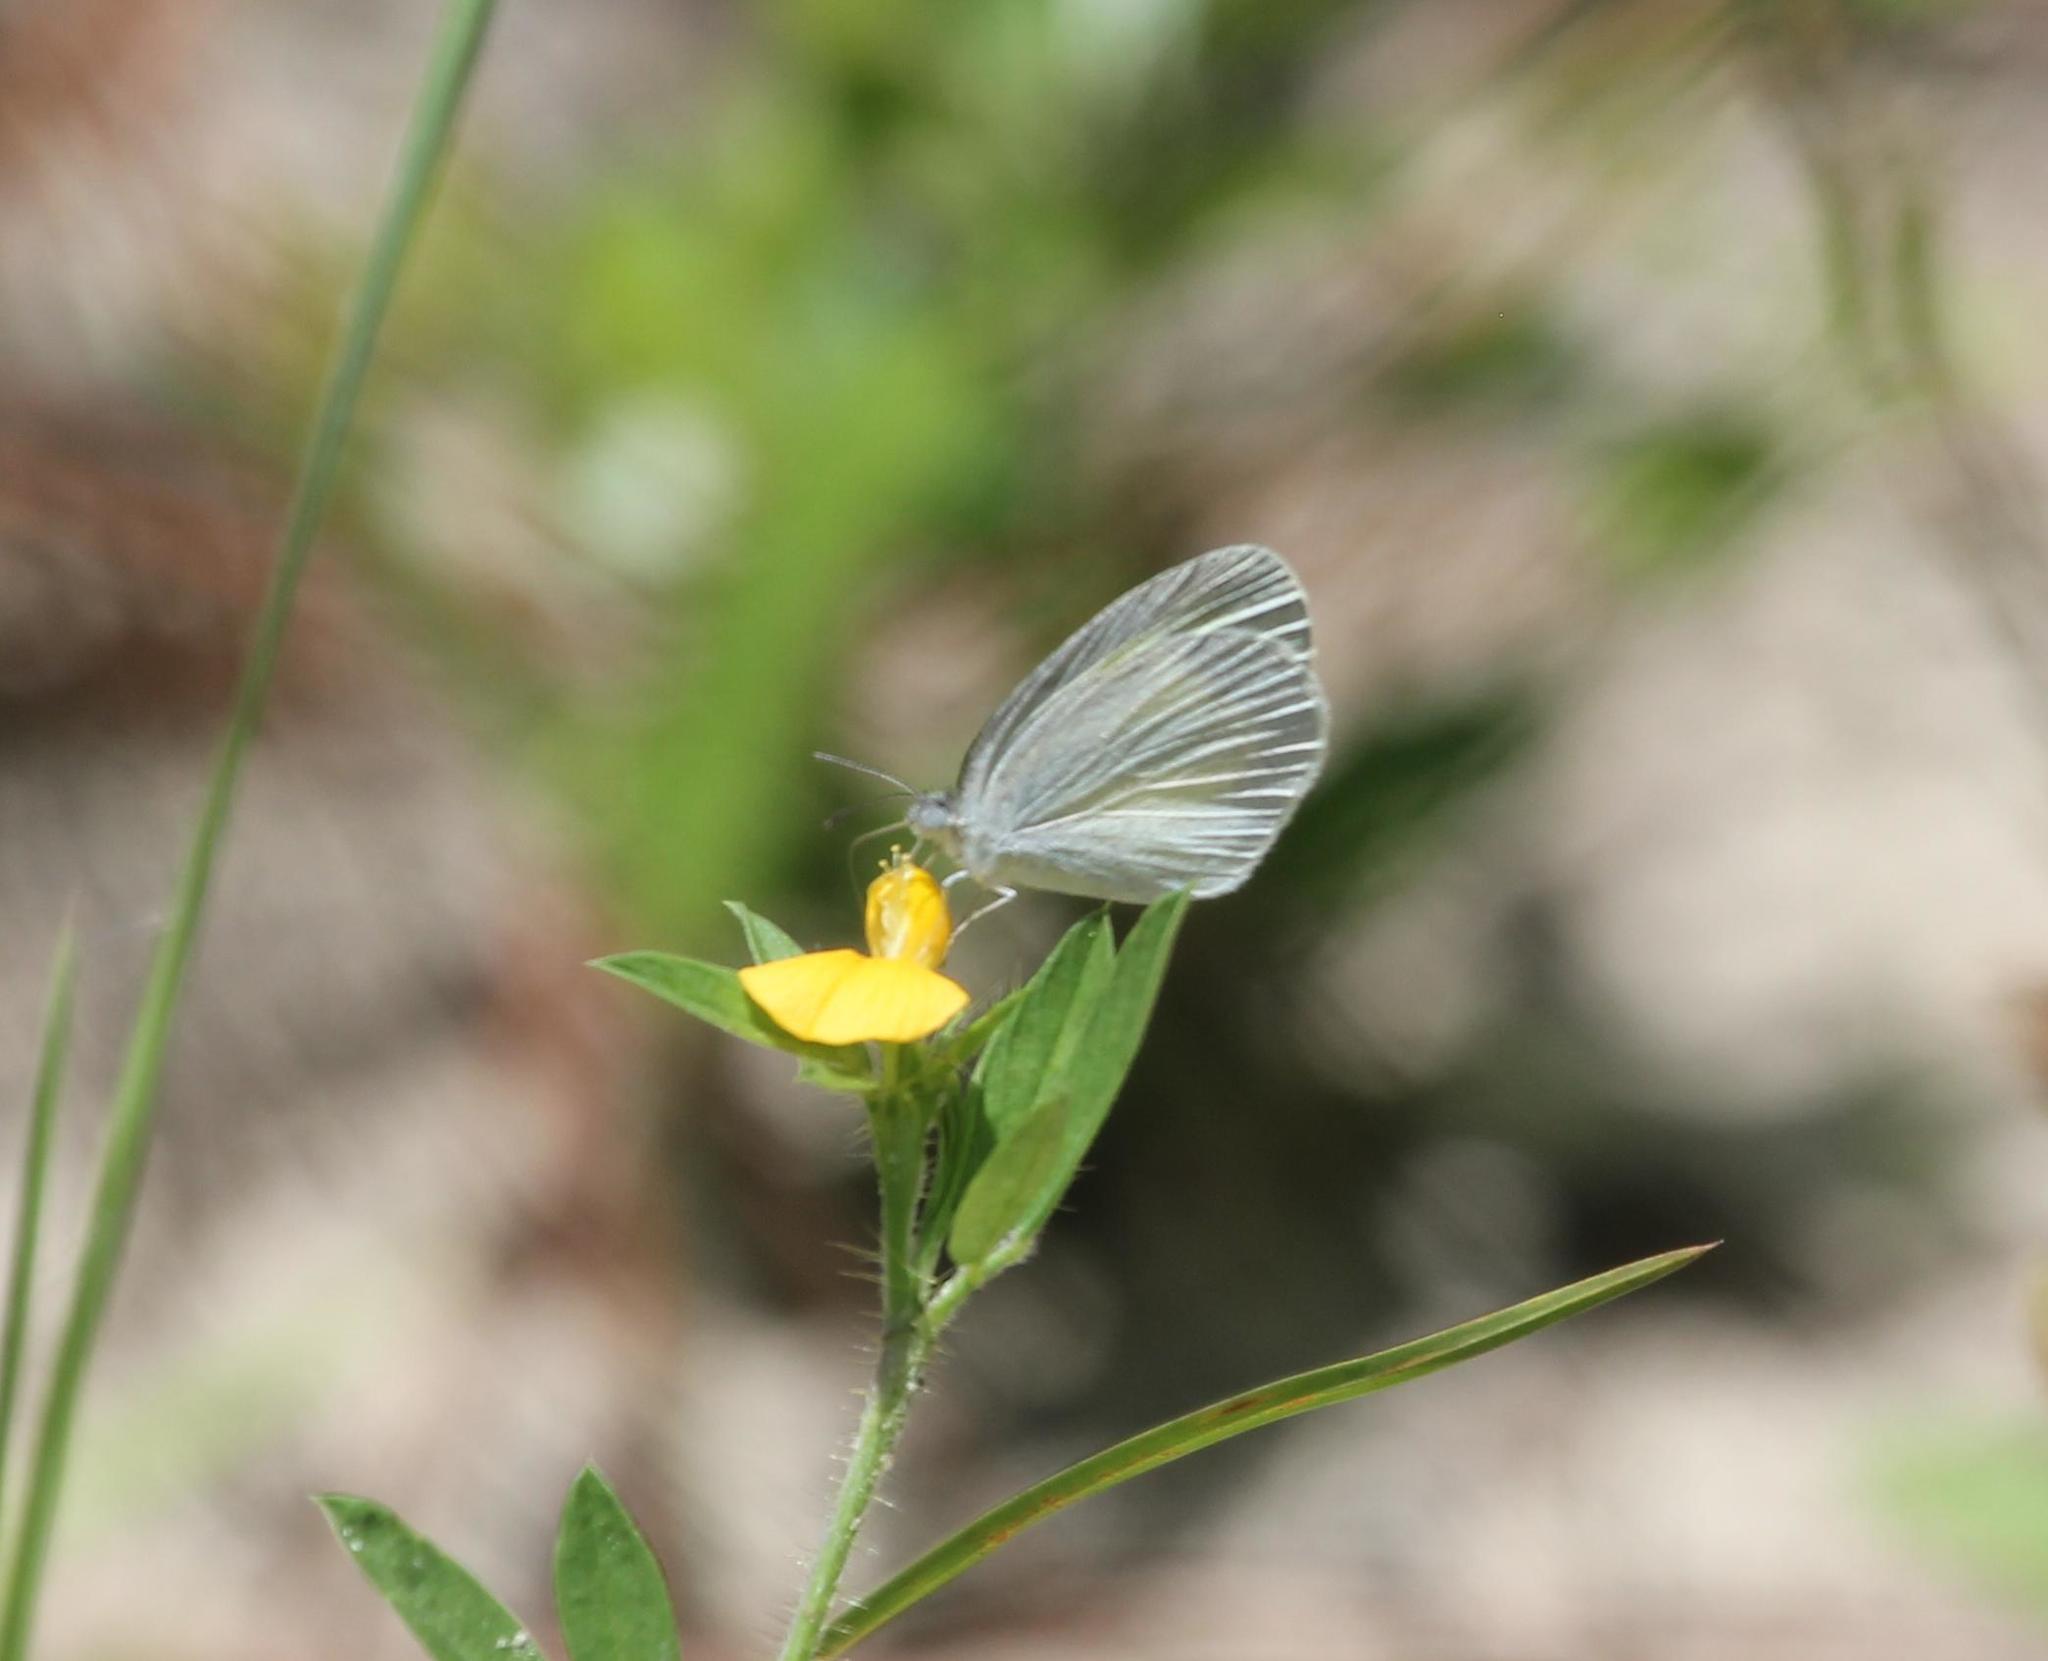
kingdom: Animalia
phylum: Arthropoda
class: Insecta
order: Lepidoptera
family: Pieridae
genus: Eurema
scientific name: Eurema daira
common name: Barred sulphur
